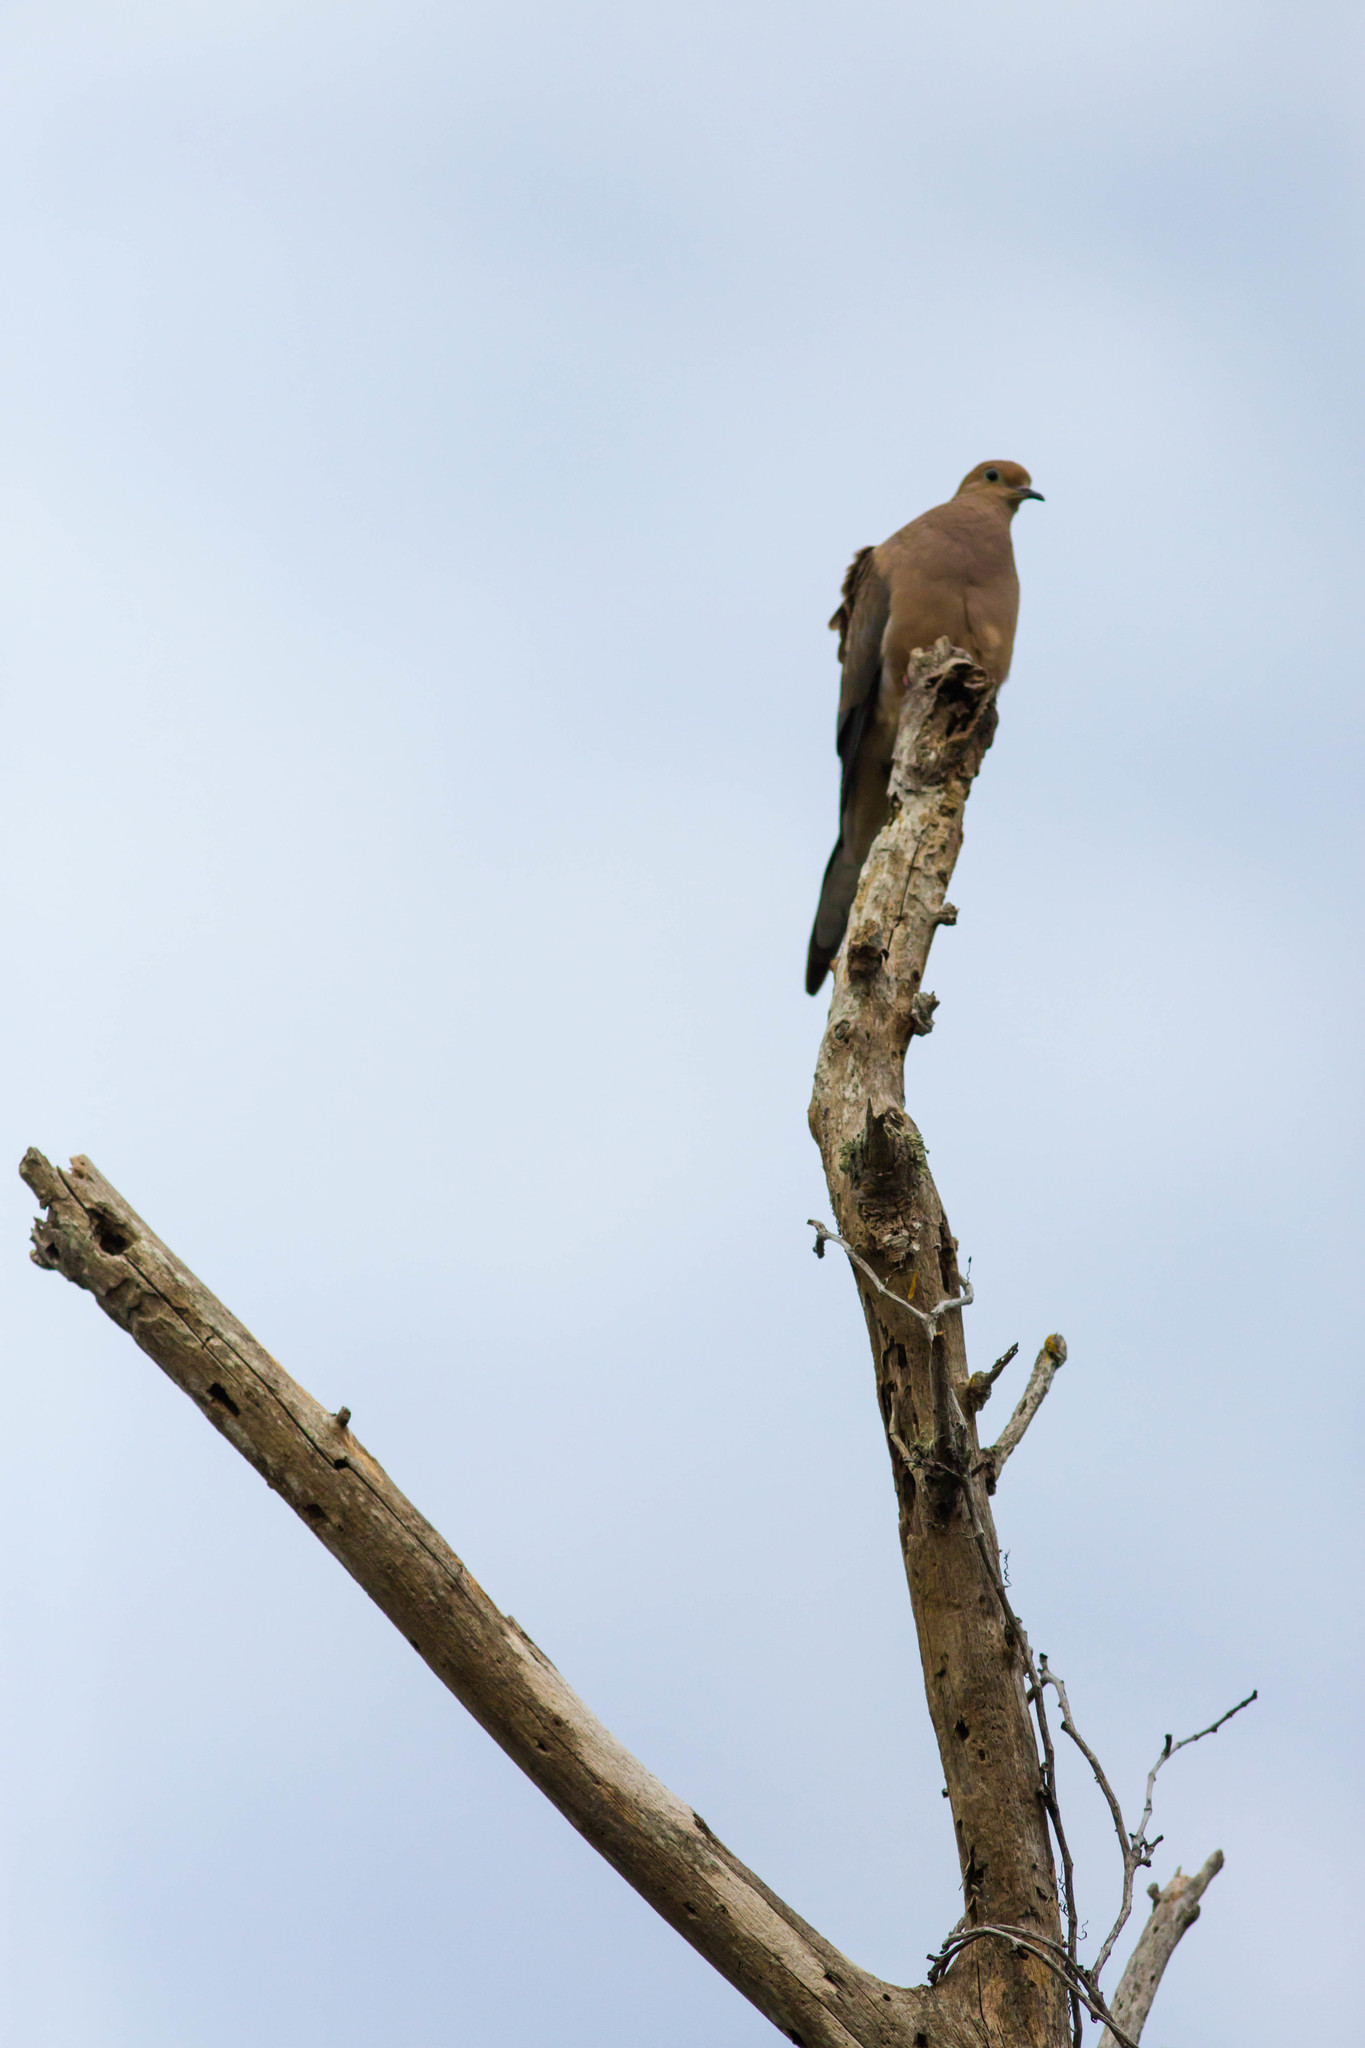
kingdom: Animalia
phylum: Chordata
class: Aves
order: Columbiformes
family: Columbidae
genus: Zenaida
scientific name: Zenaida macroura
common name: Mourning dove
